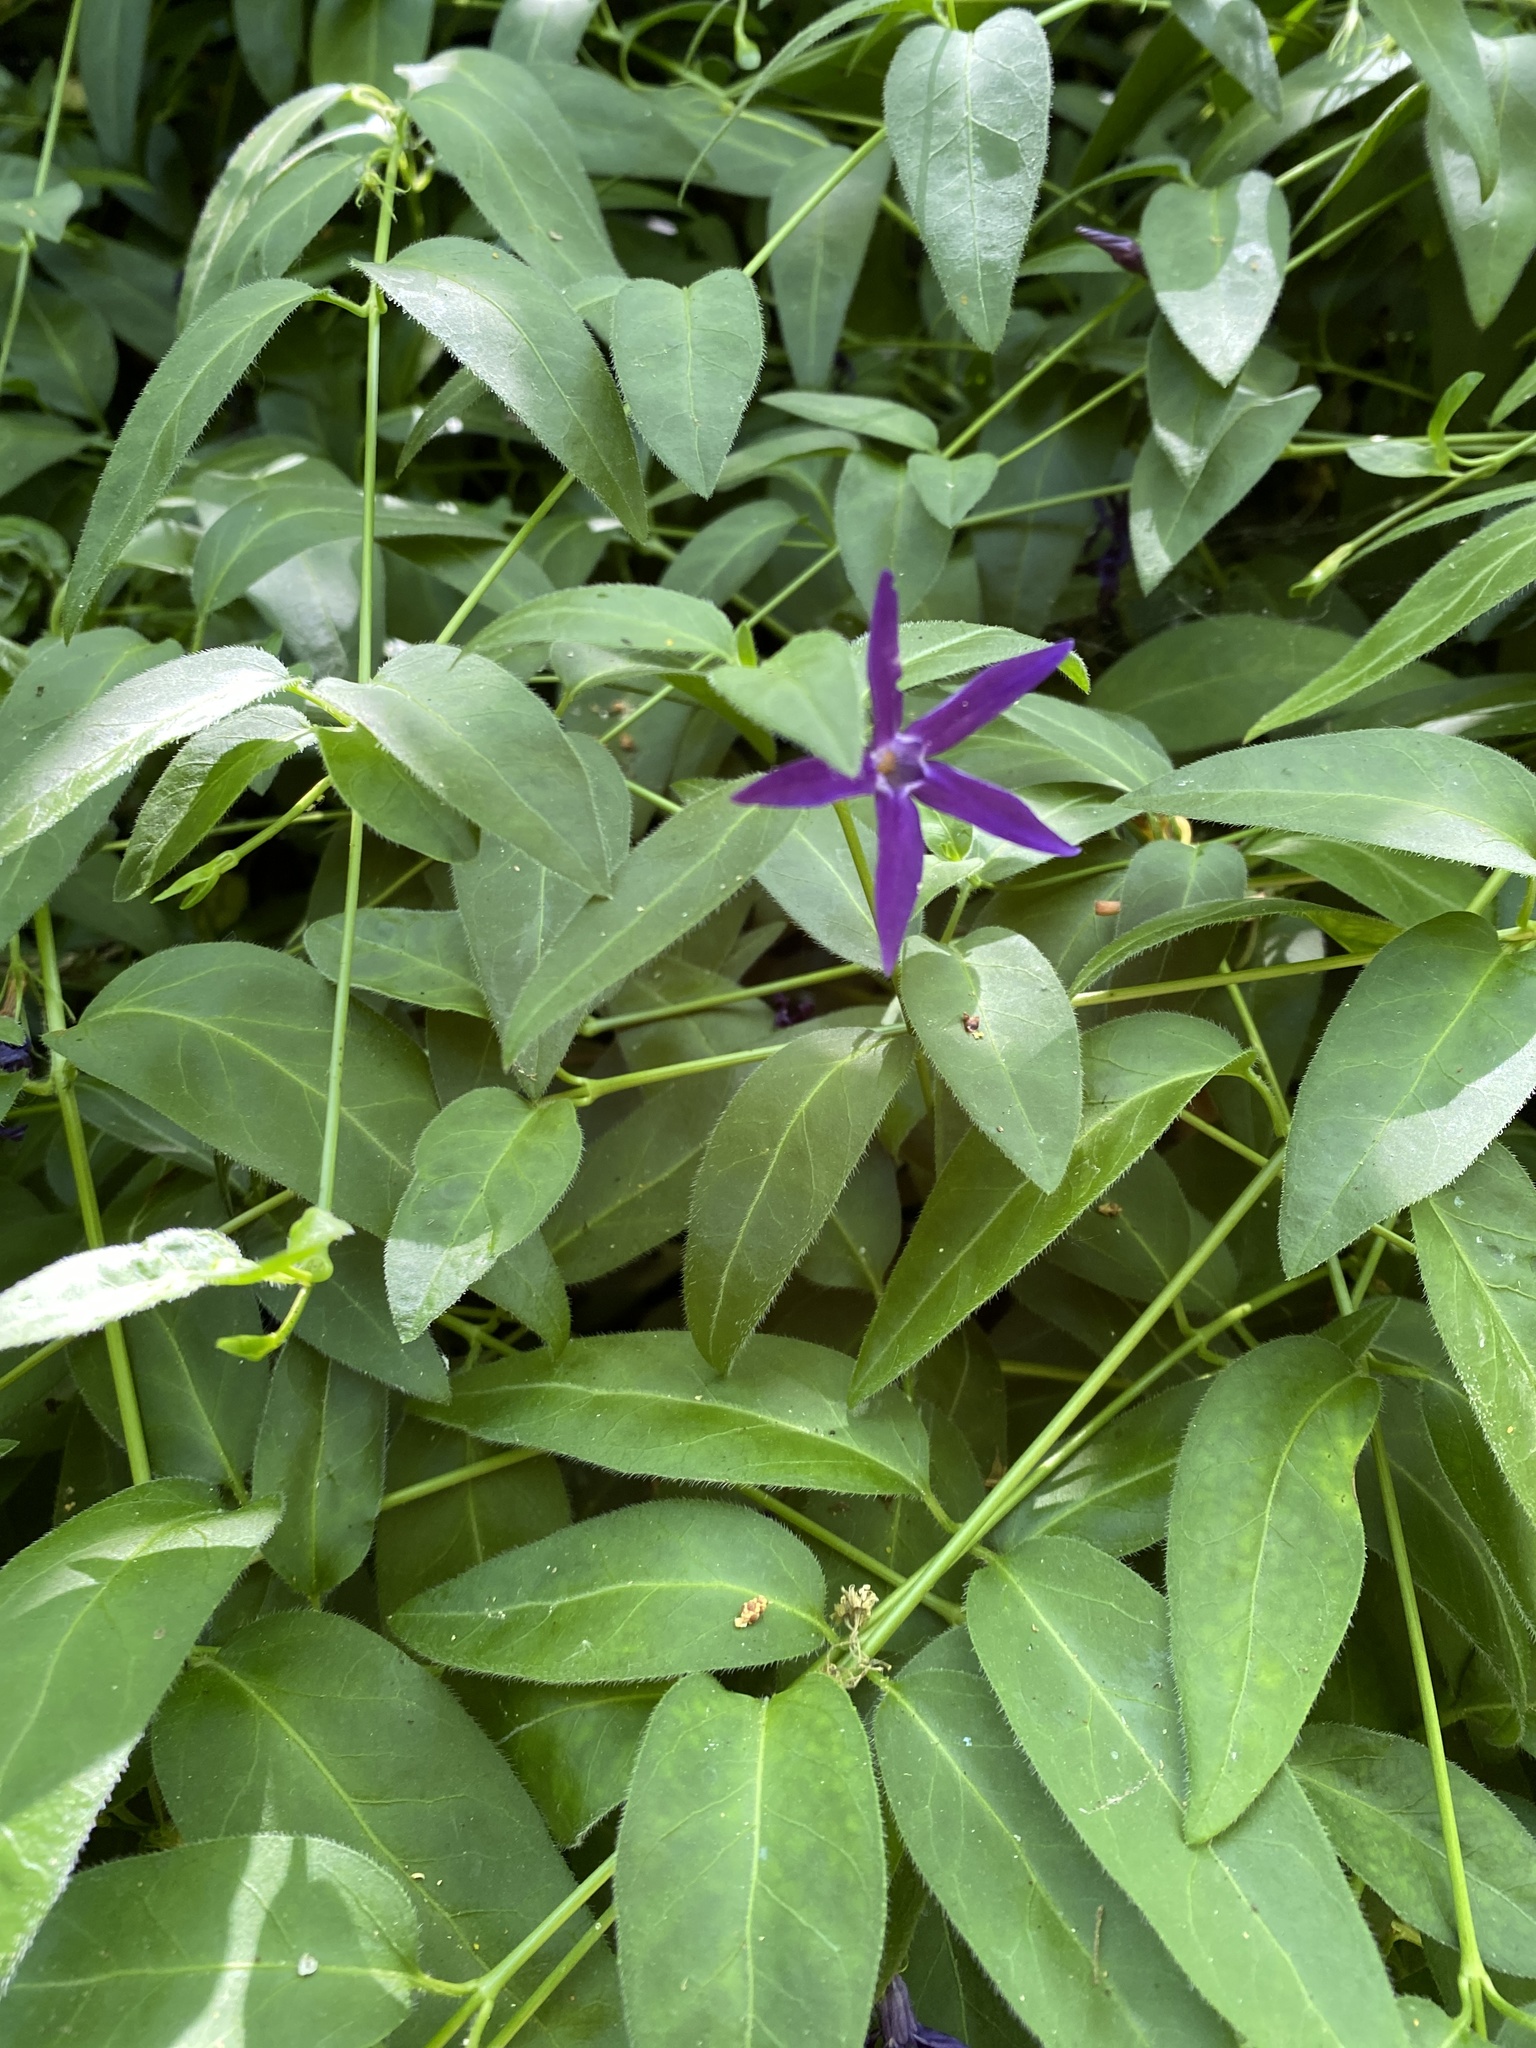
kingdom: Plantae
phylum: Tracheophyta
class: Magnoliopsida
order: Gentianales
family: Apocynaceae
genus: Vinca
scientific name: Vinca major
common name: Greater periwinkle
